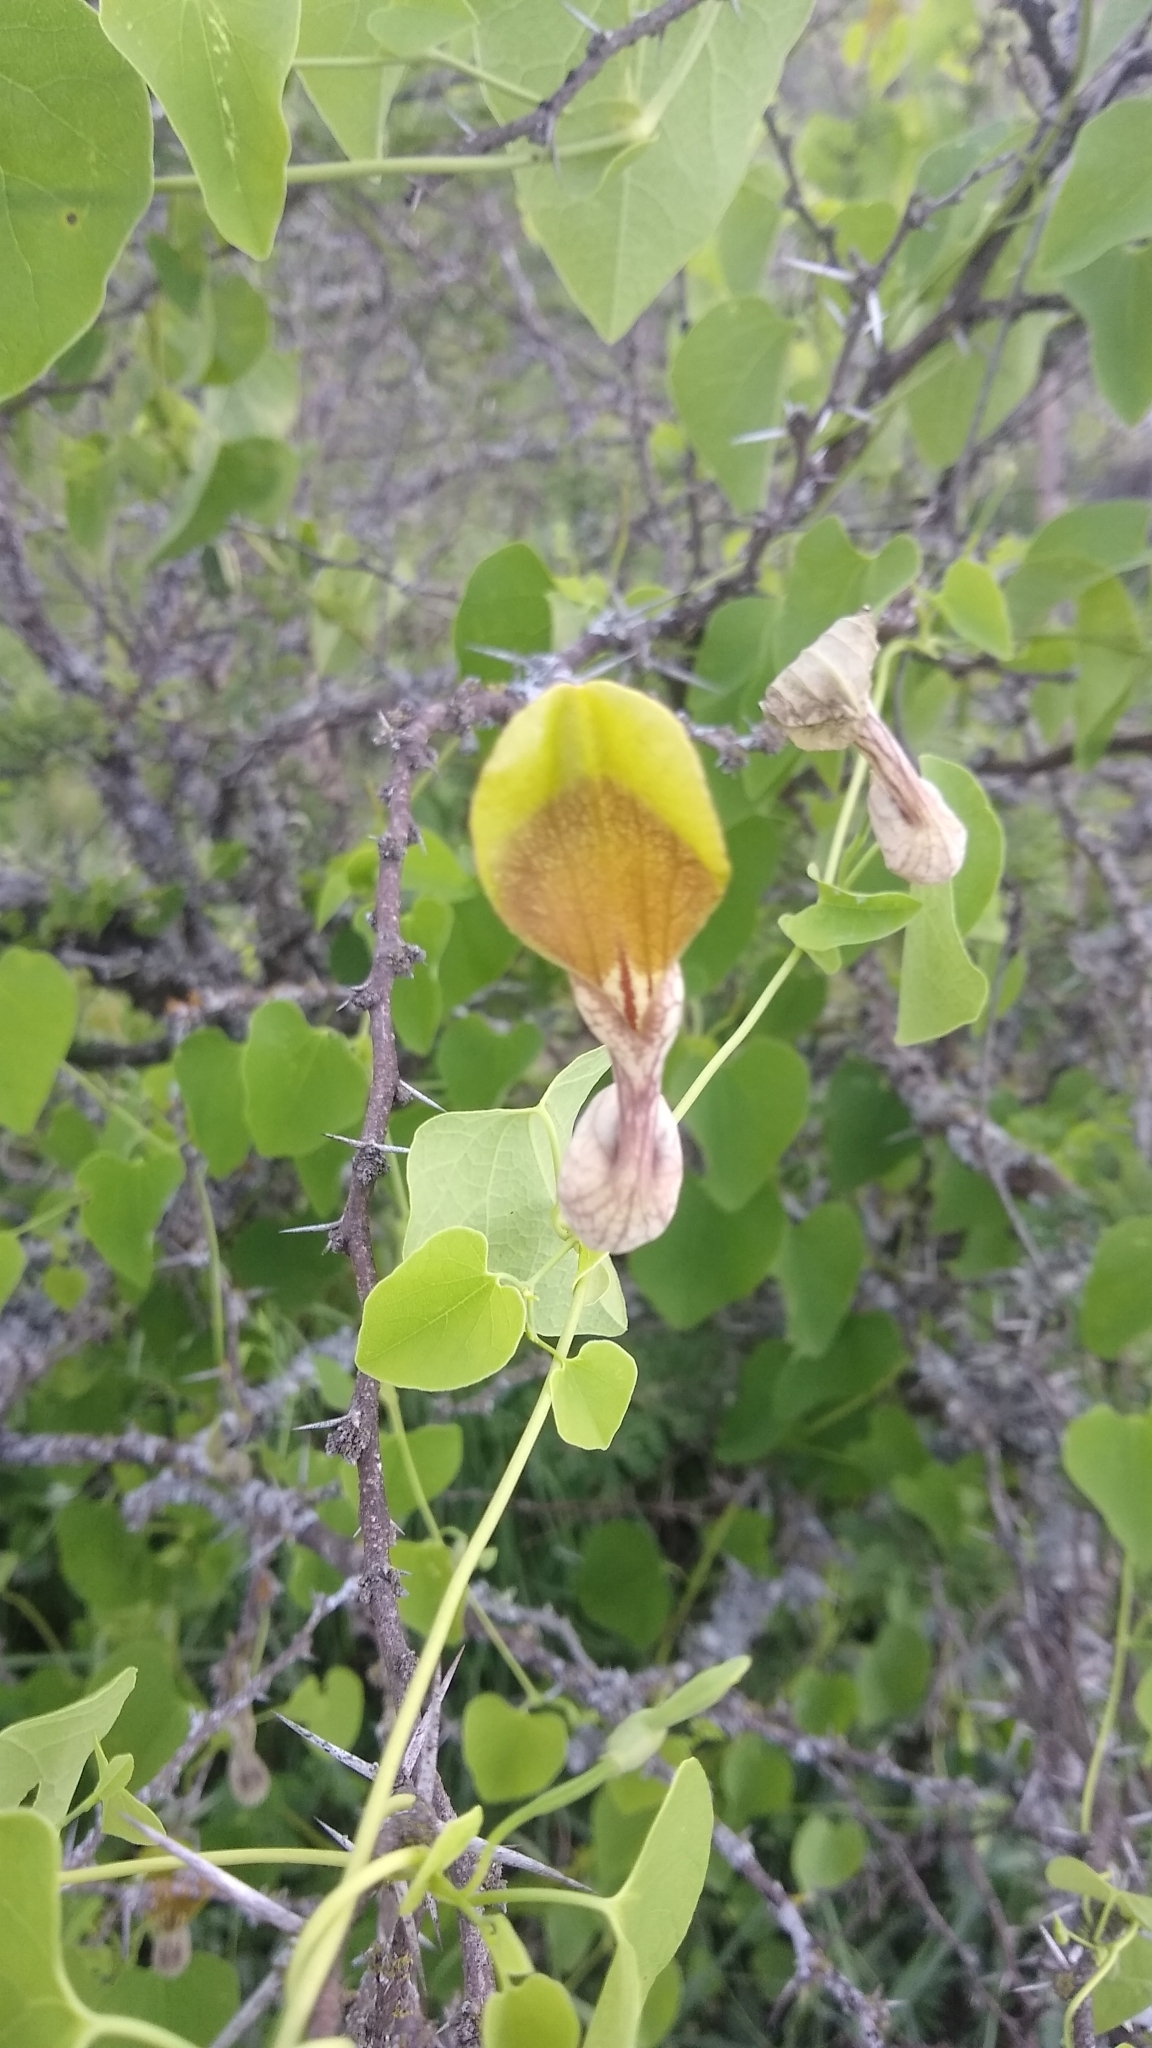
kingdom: Plantae
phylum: Tracheophyta
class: Magnoliopsida
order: Piperales
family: Aristolochiaceae
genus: Aristolochia
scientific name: Aristolochia argentina
